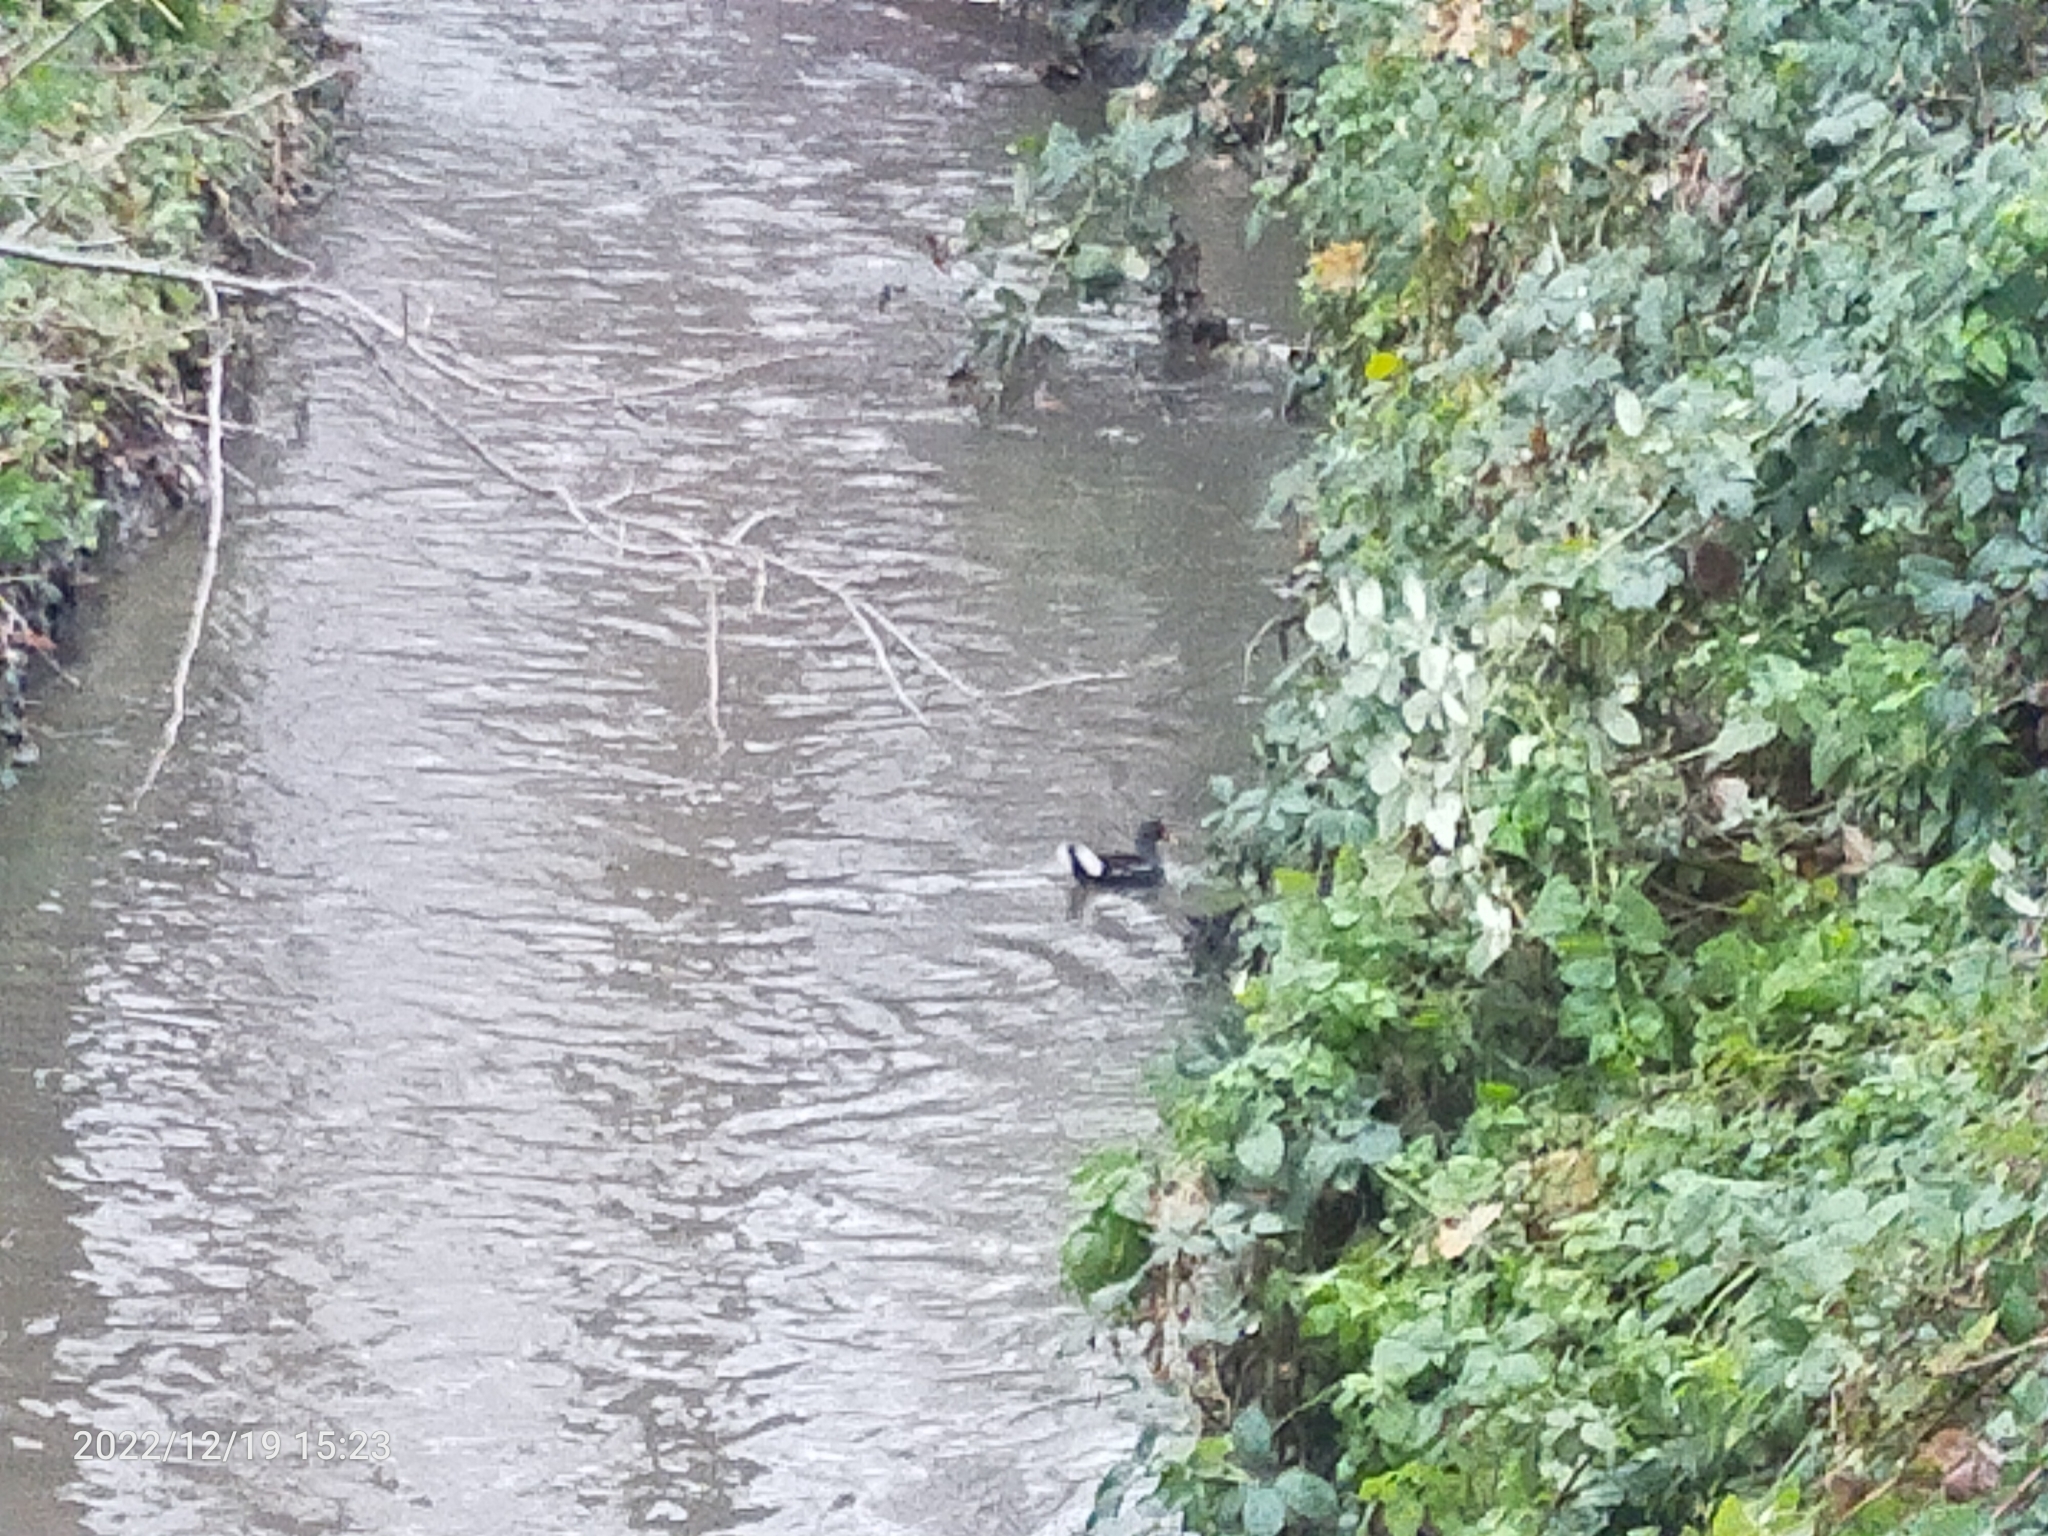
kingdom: Animalia
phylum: Chordata
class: Aves
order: Gruiformes
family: Rallidae
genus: Gallinula
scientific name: Gallinula chloropus
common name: Common moorhen
